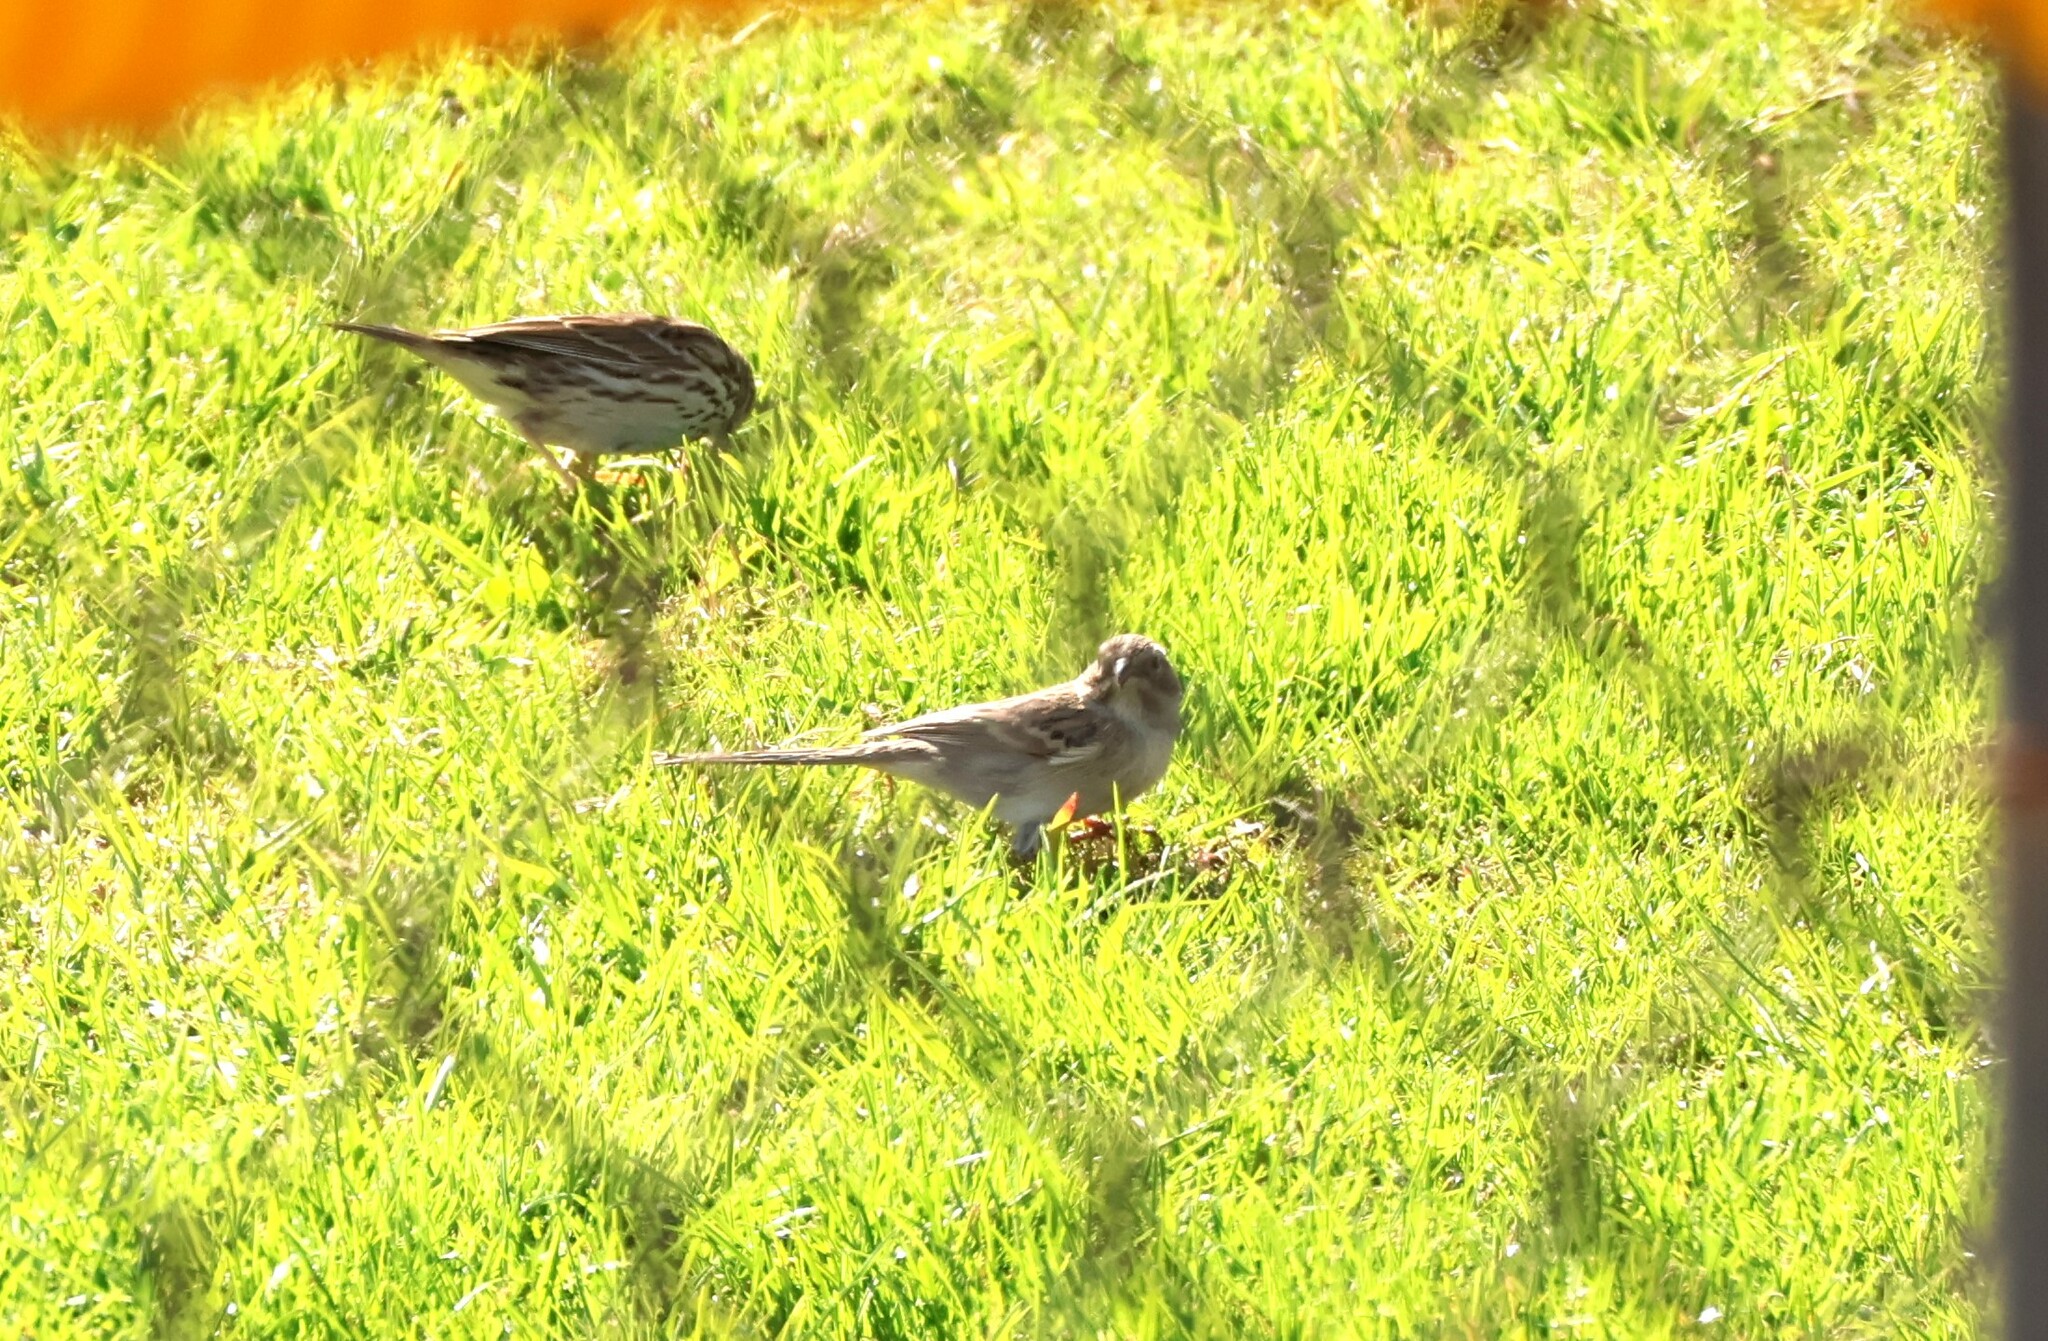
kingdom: Animalia
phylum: Chordata
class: Aves
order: Passeriformes
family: Passerellidae
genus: Spizella
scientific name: Spizella breweri
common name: Brewer's sparrow
